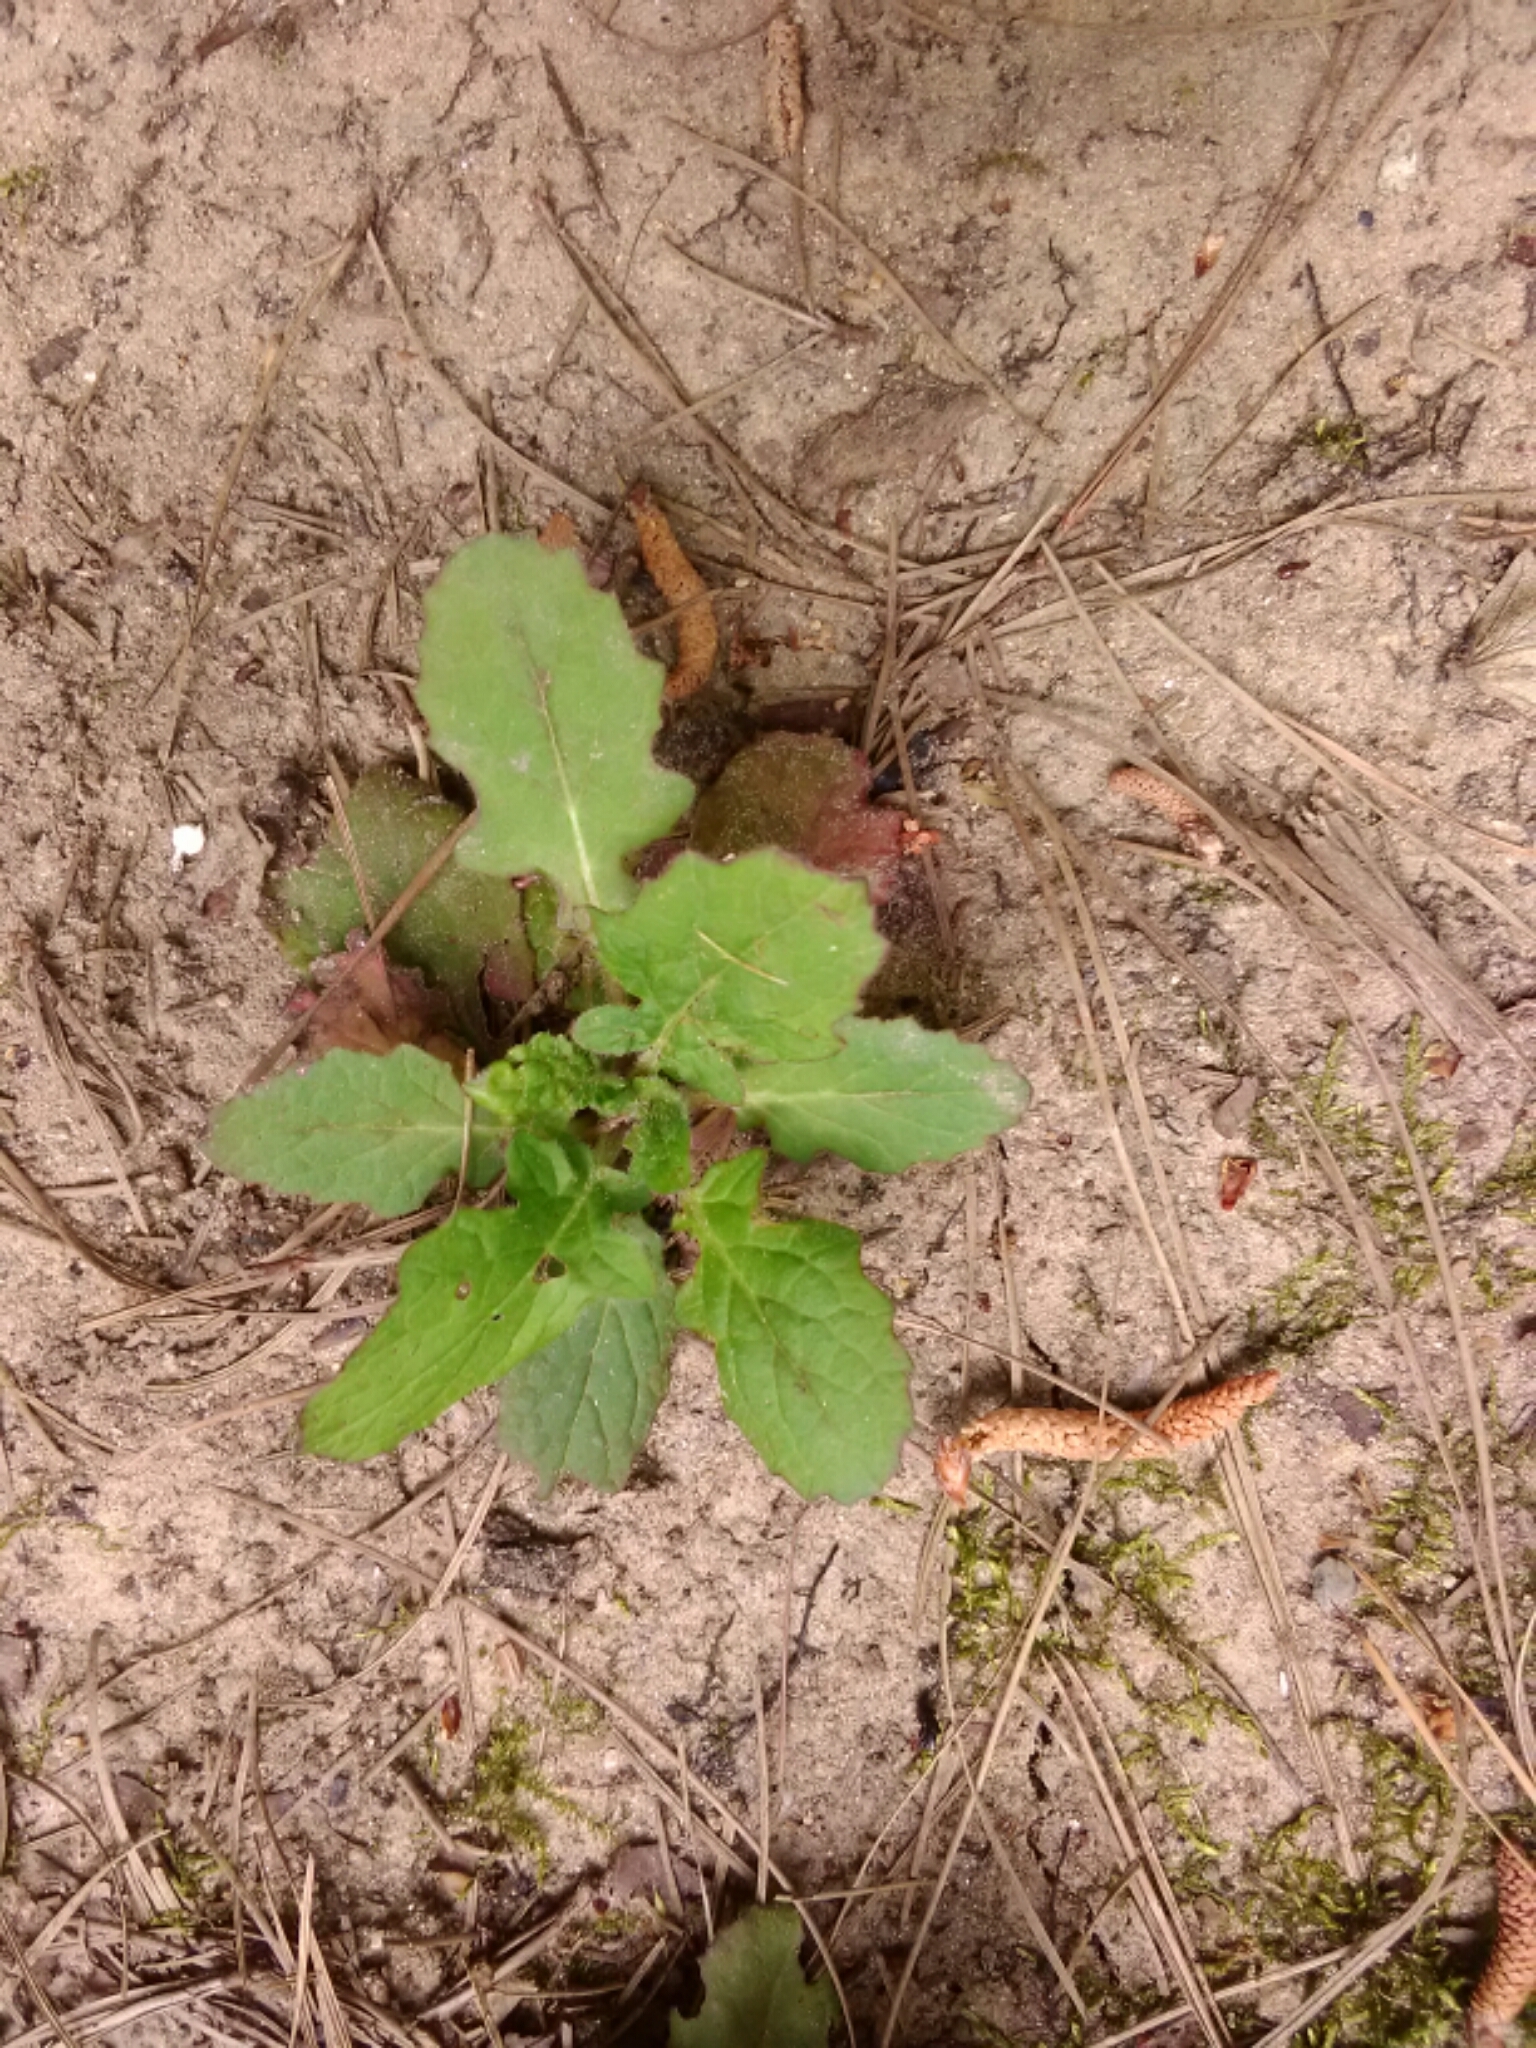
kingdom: Plantae
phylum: Tracheophyta
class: Magnoliopsida
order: Lamiales
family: Lamiaceae
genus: Salvia
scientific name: Salvia lyrata
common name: Cancerweed
